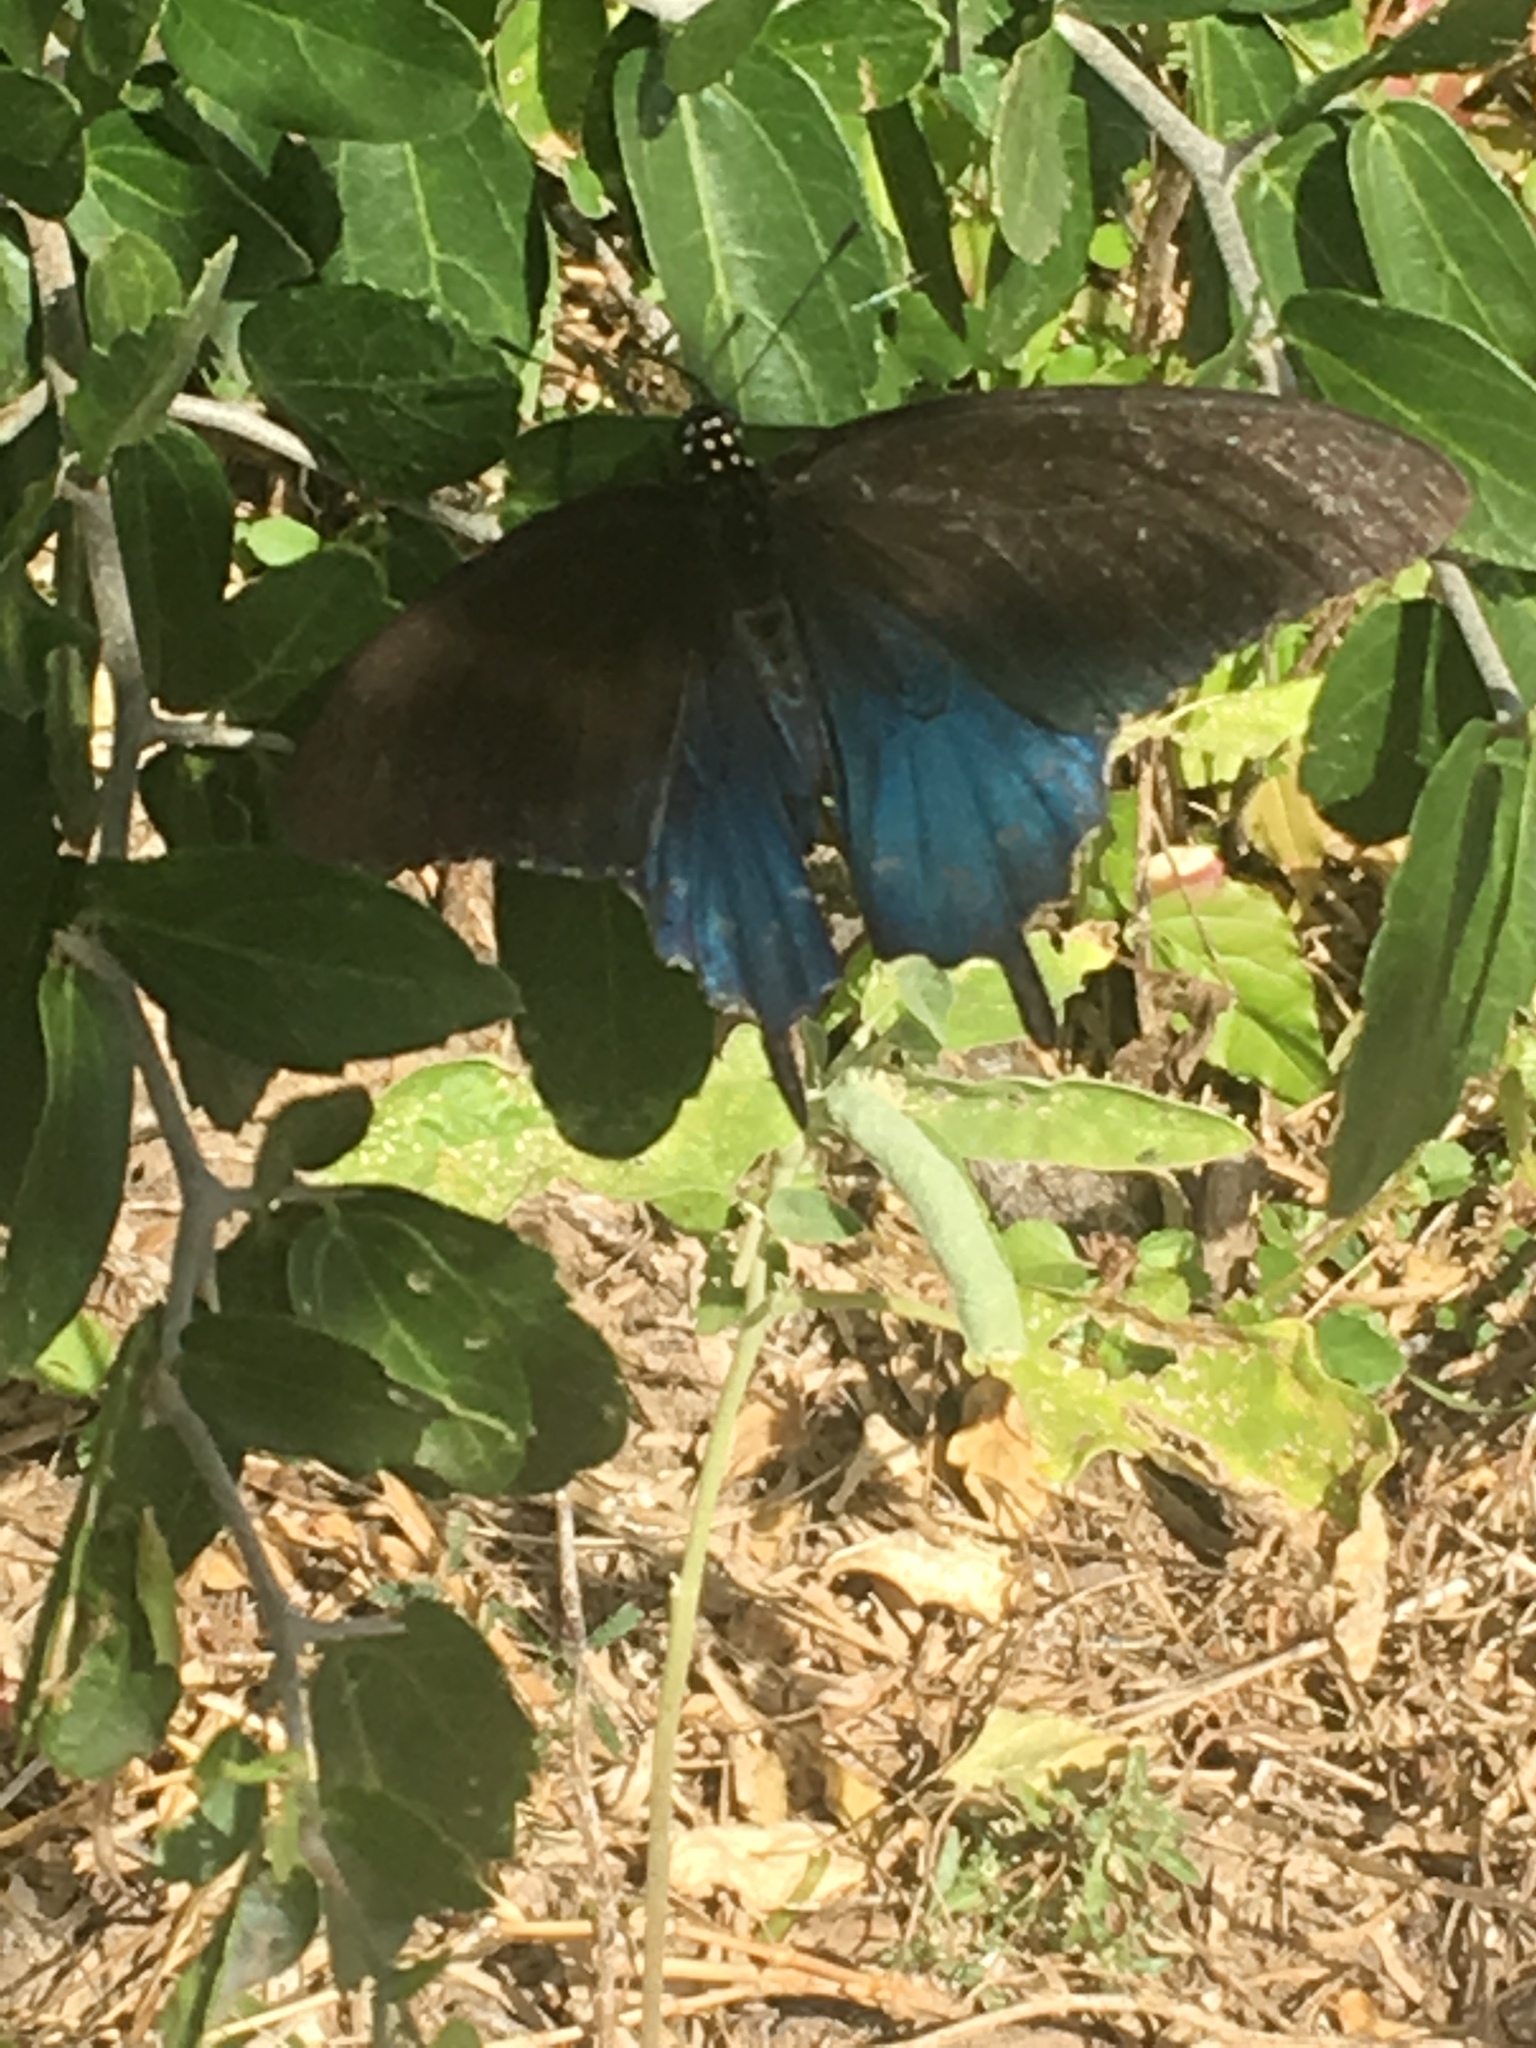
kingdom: Animalia
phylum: Arthropoda
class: Insecta
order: Lepidoptera
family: Papilionidae
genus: Battus
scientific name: Battus philenor
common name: Pipevine swallowtail
